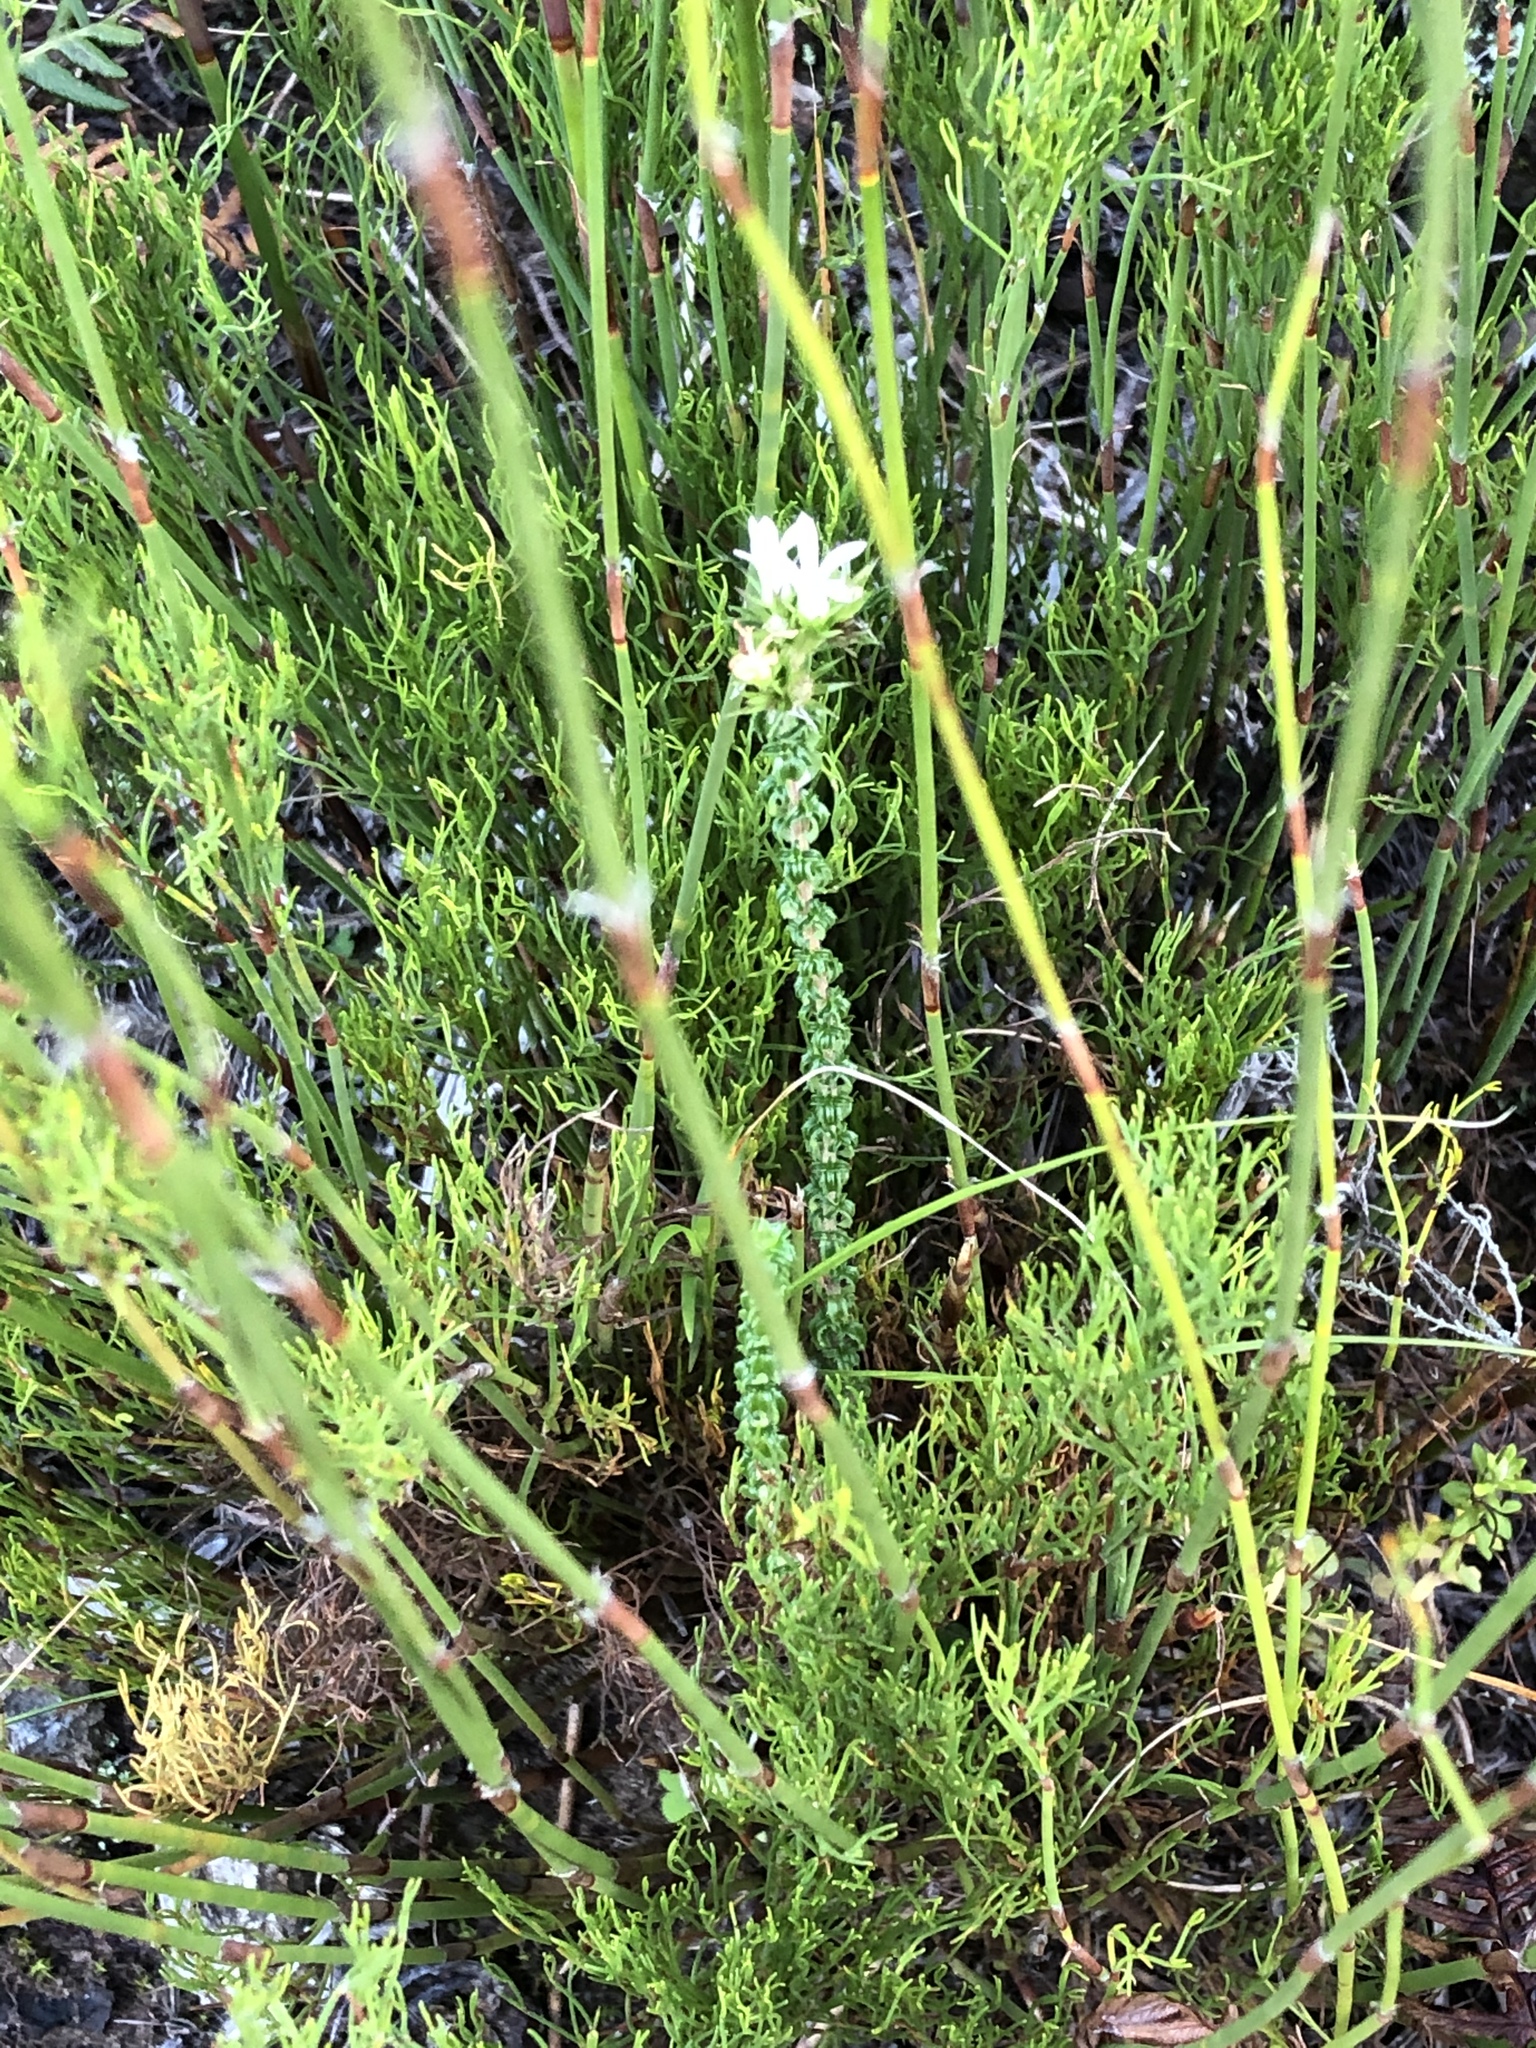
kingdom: Plantae
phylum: Tracheophyta
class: Magnoliopsida
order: Asterales
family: Campanulaceae
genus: Wahlenbergia
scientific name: Wahlenbergia desmantha
